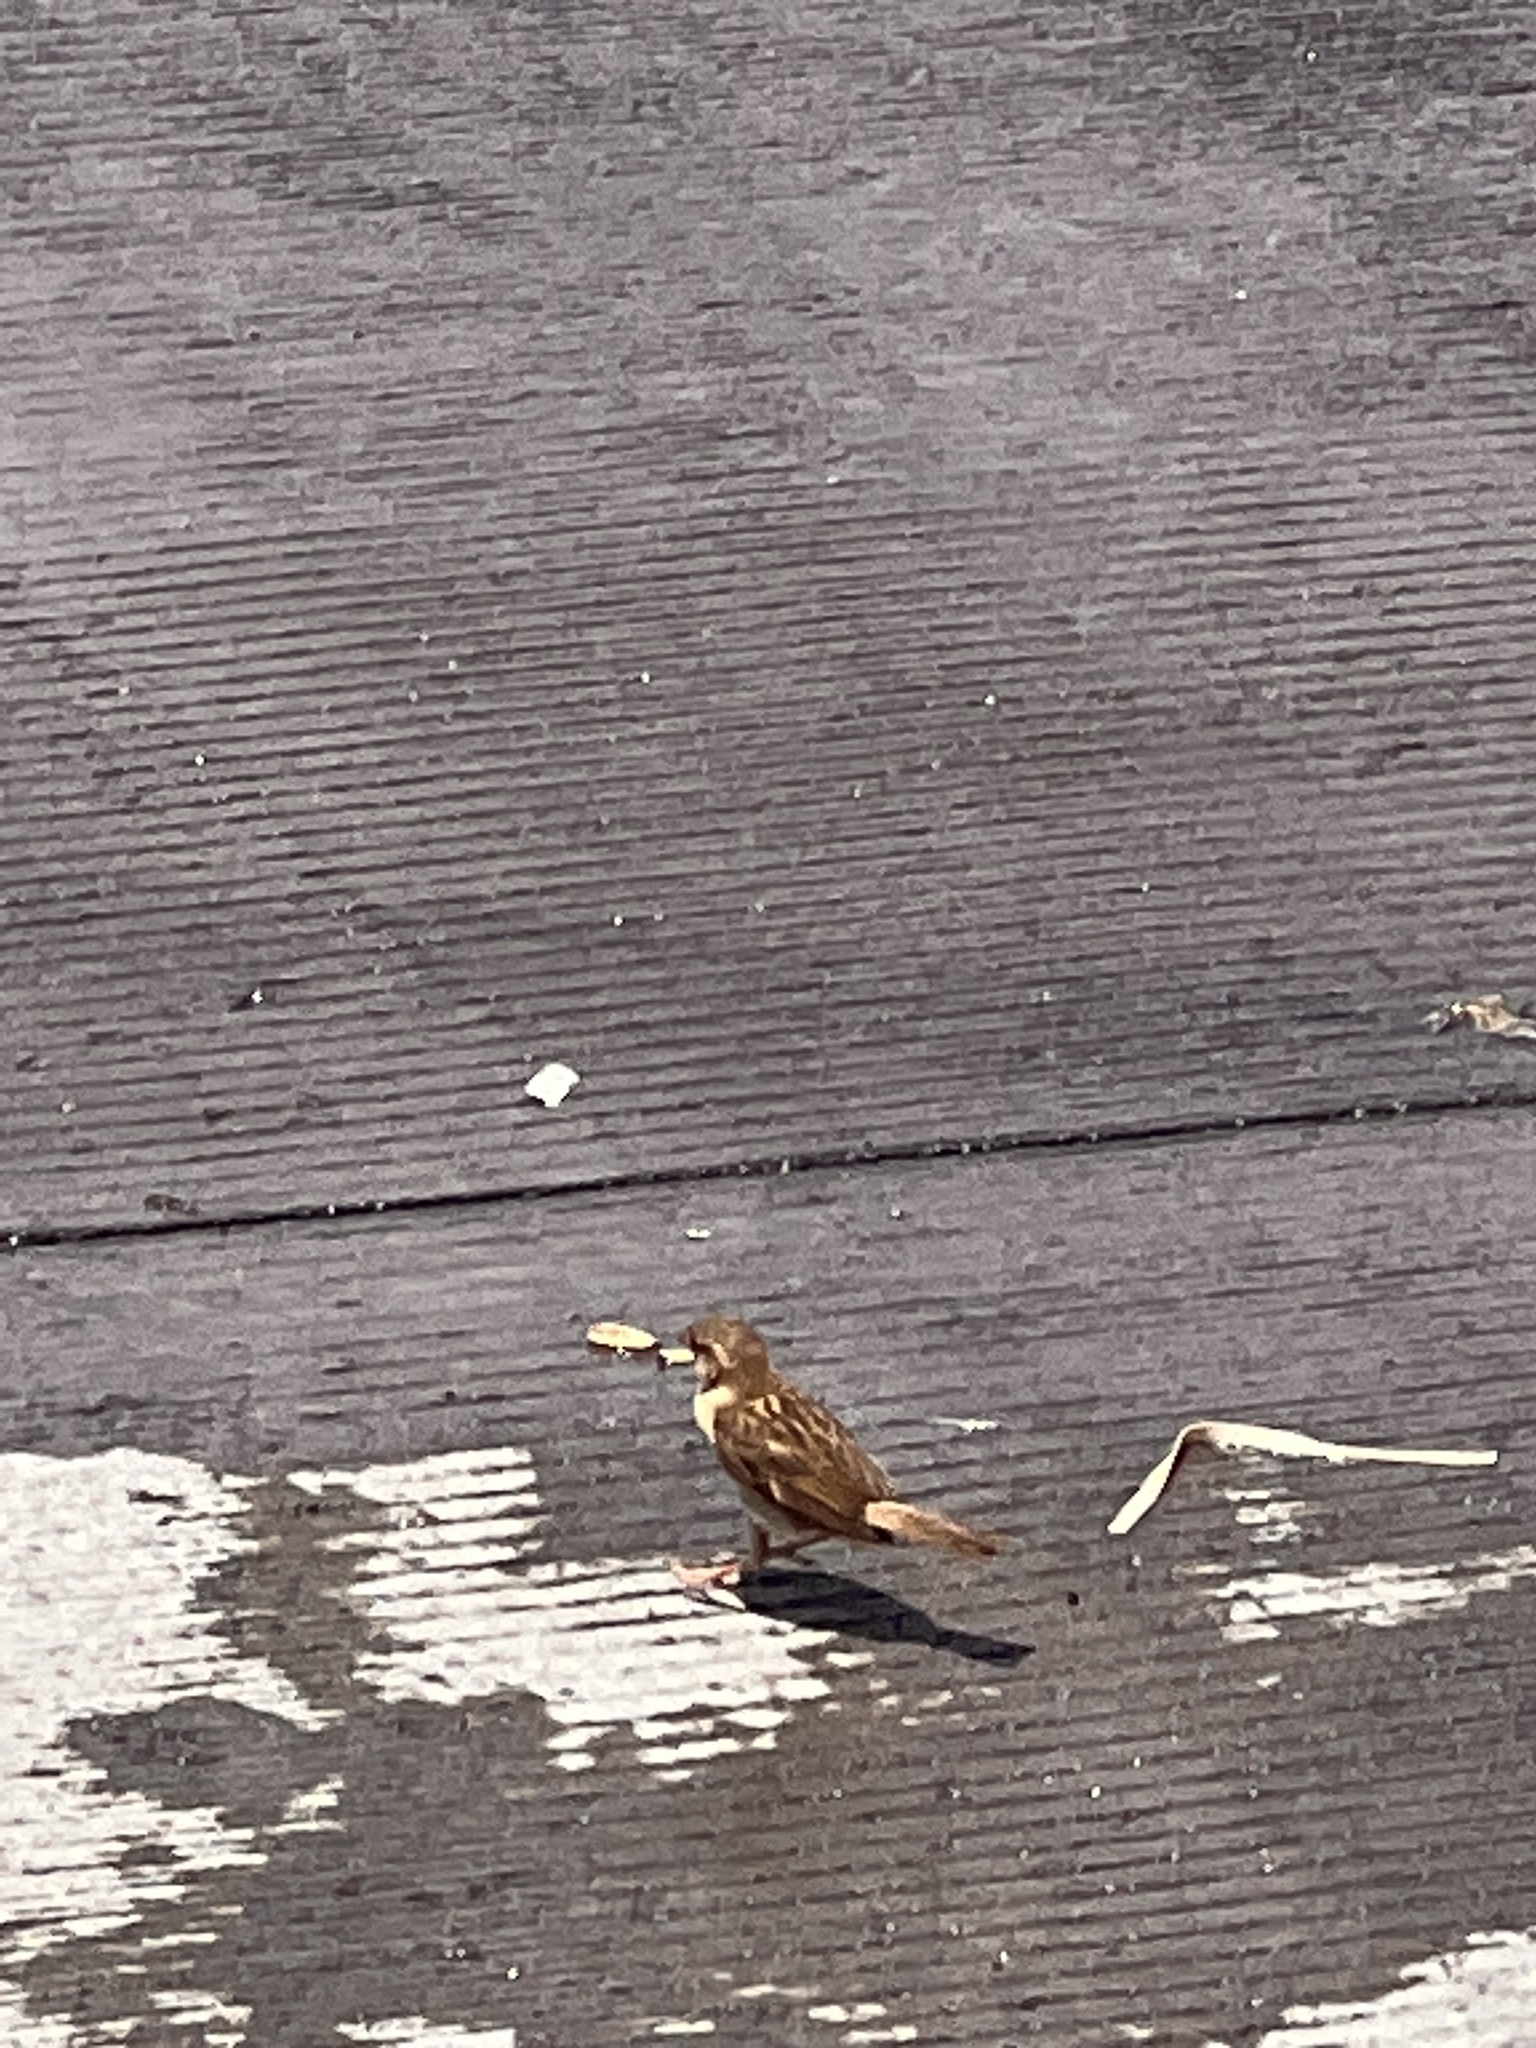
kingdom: Animalia
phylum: Chordata
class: Aves
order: Passeriformes
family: Passeridae
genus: Passer
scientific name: Passer domesticus
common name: House sparrow
